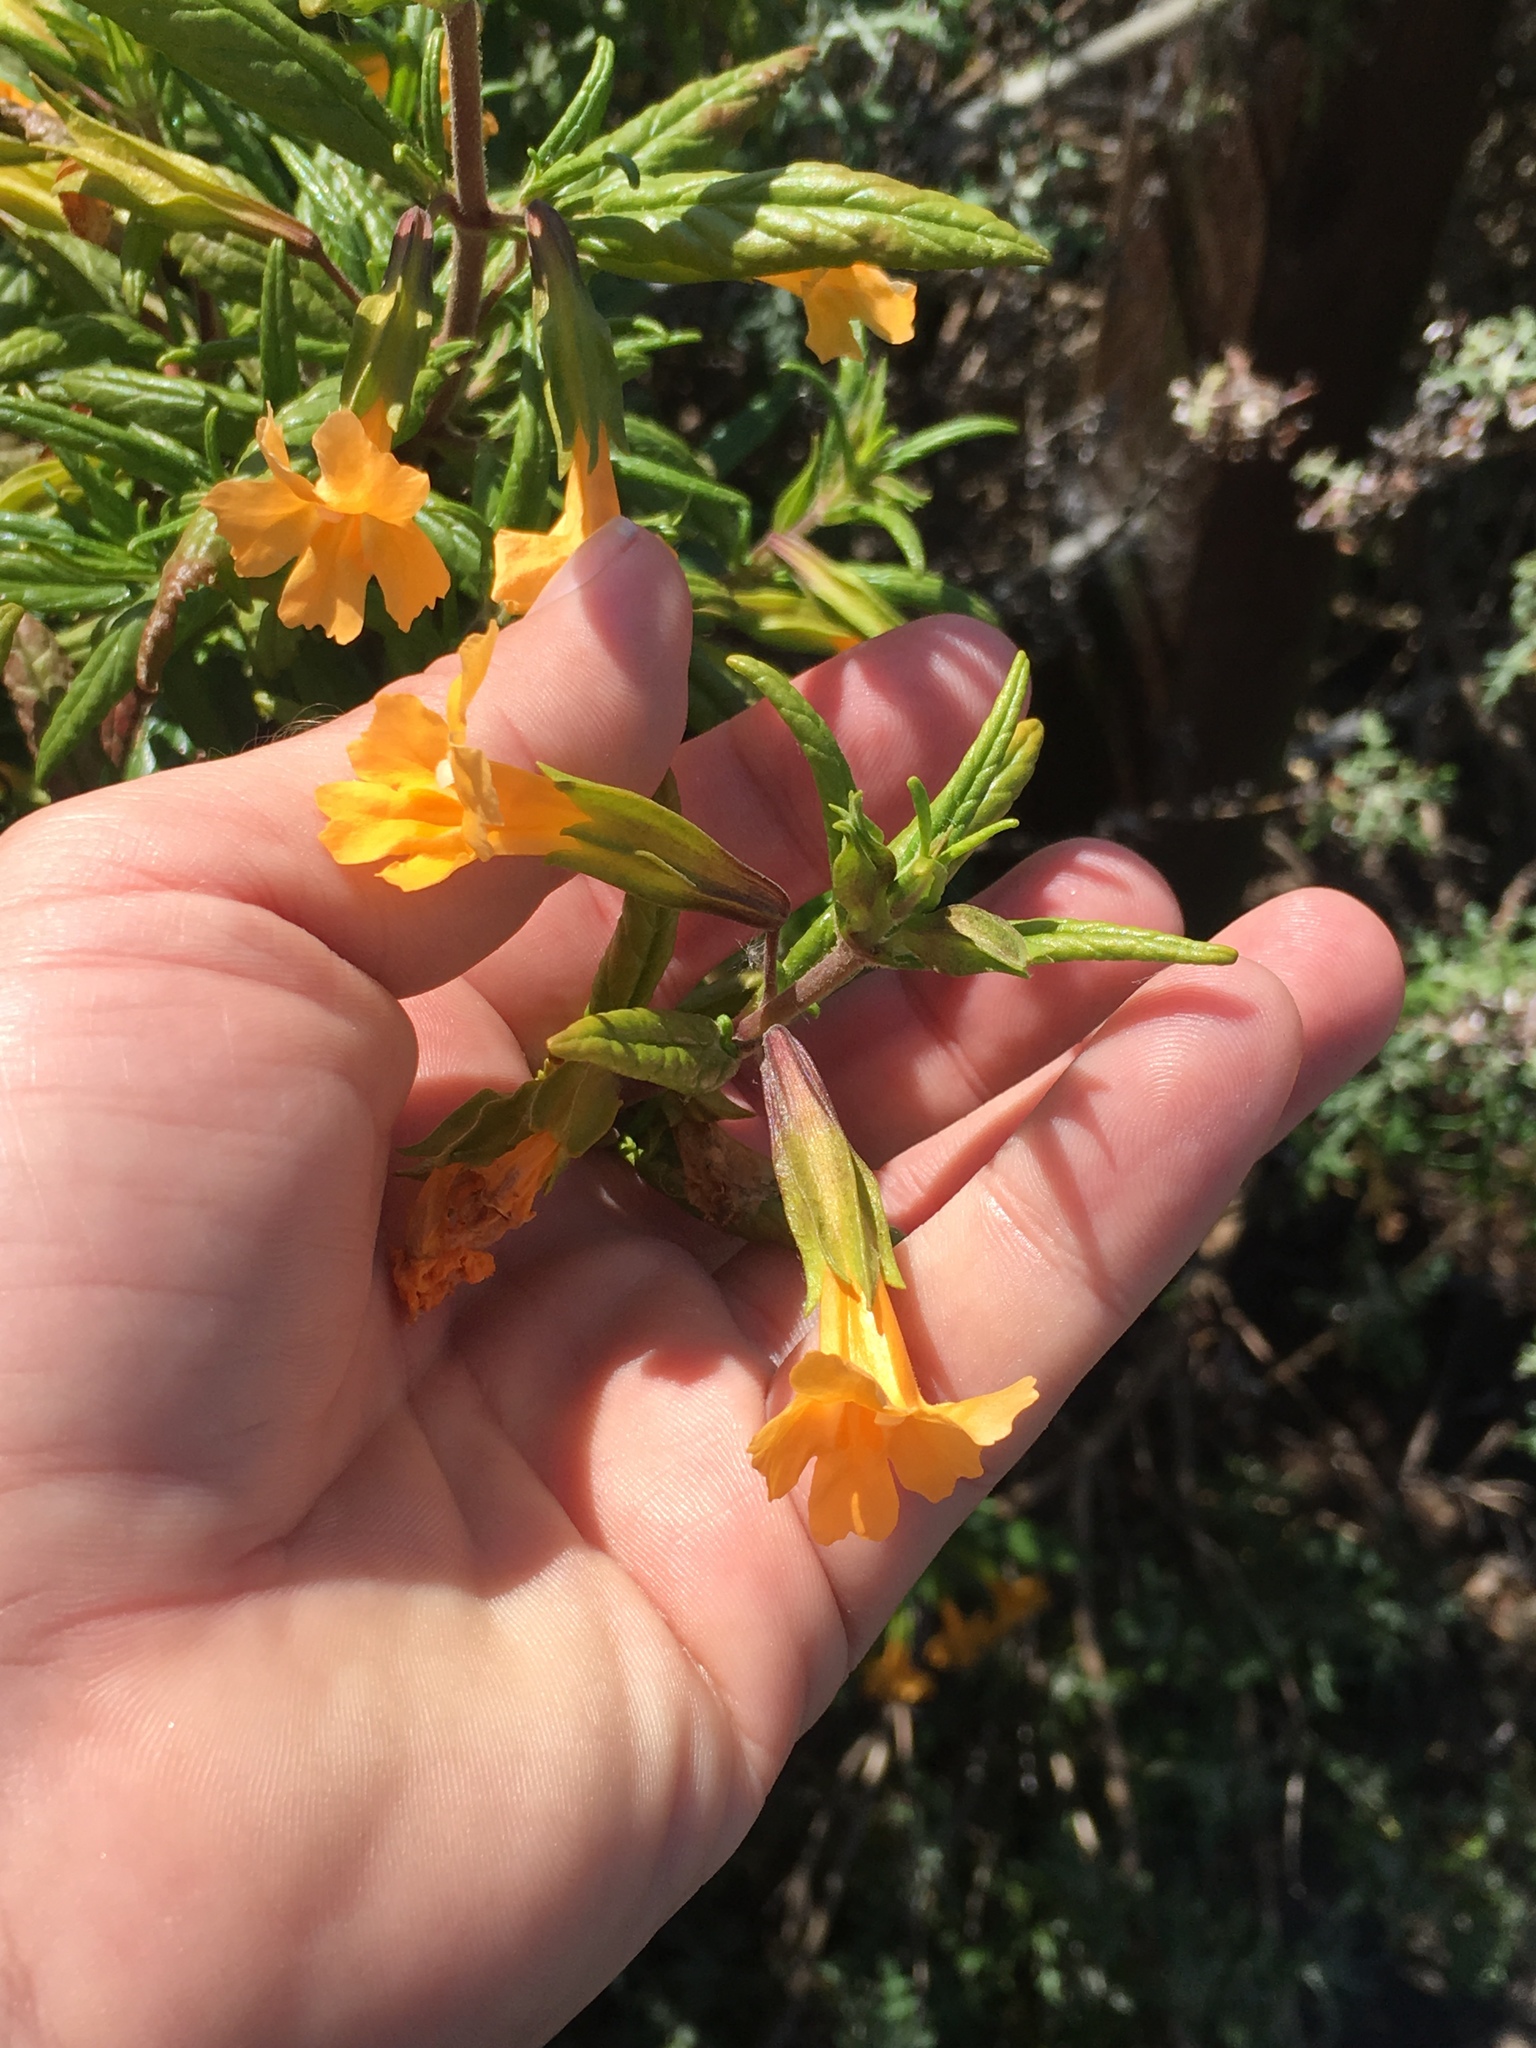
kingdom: Plantae
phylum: Tracheophyta
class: Magnoliopsida
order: Lamiales
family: Phrymaceae
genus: Diplacus
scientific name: Diplacus aurantiacus
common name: Bush monkey-flower
